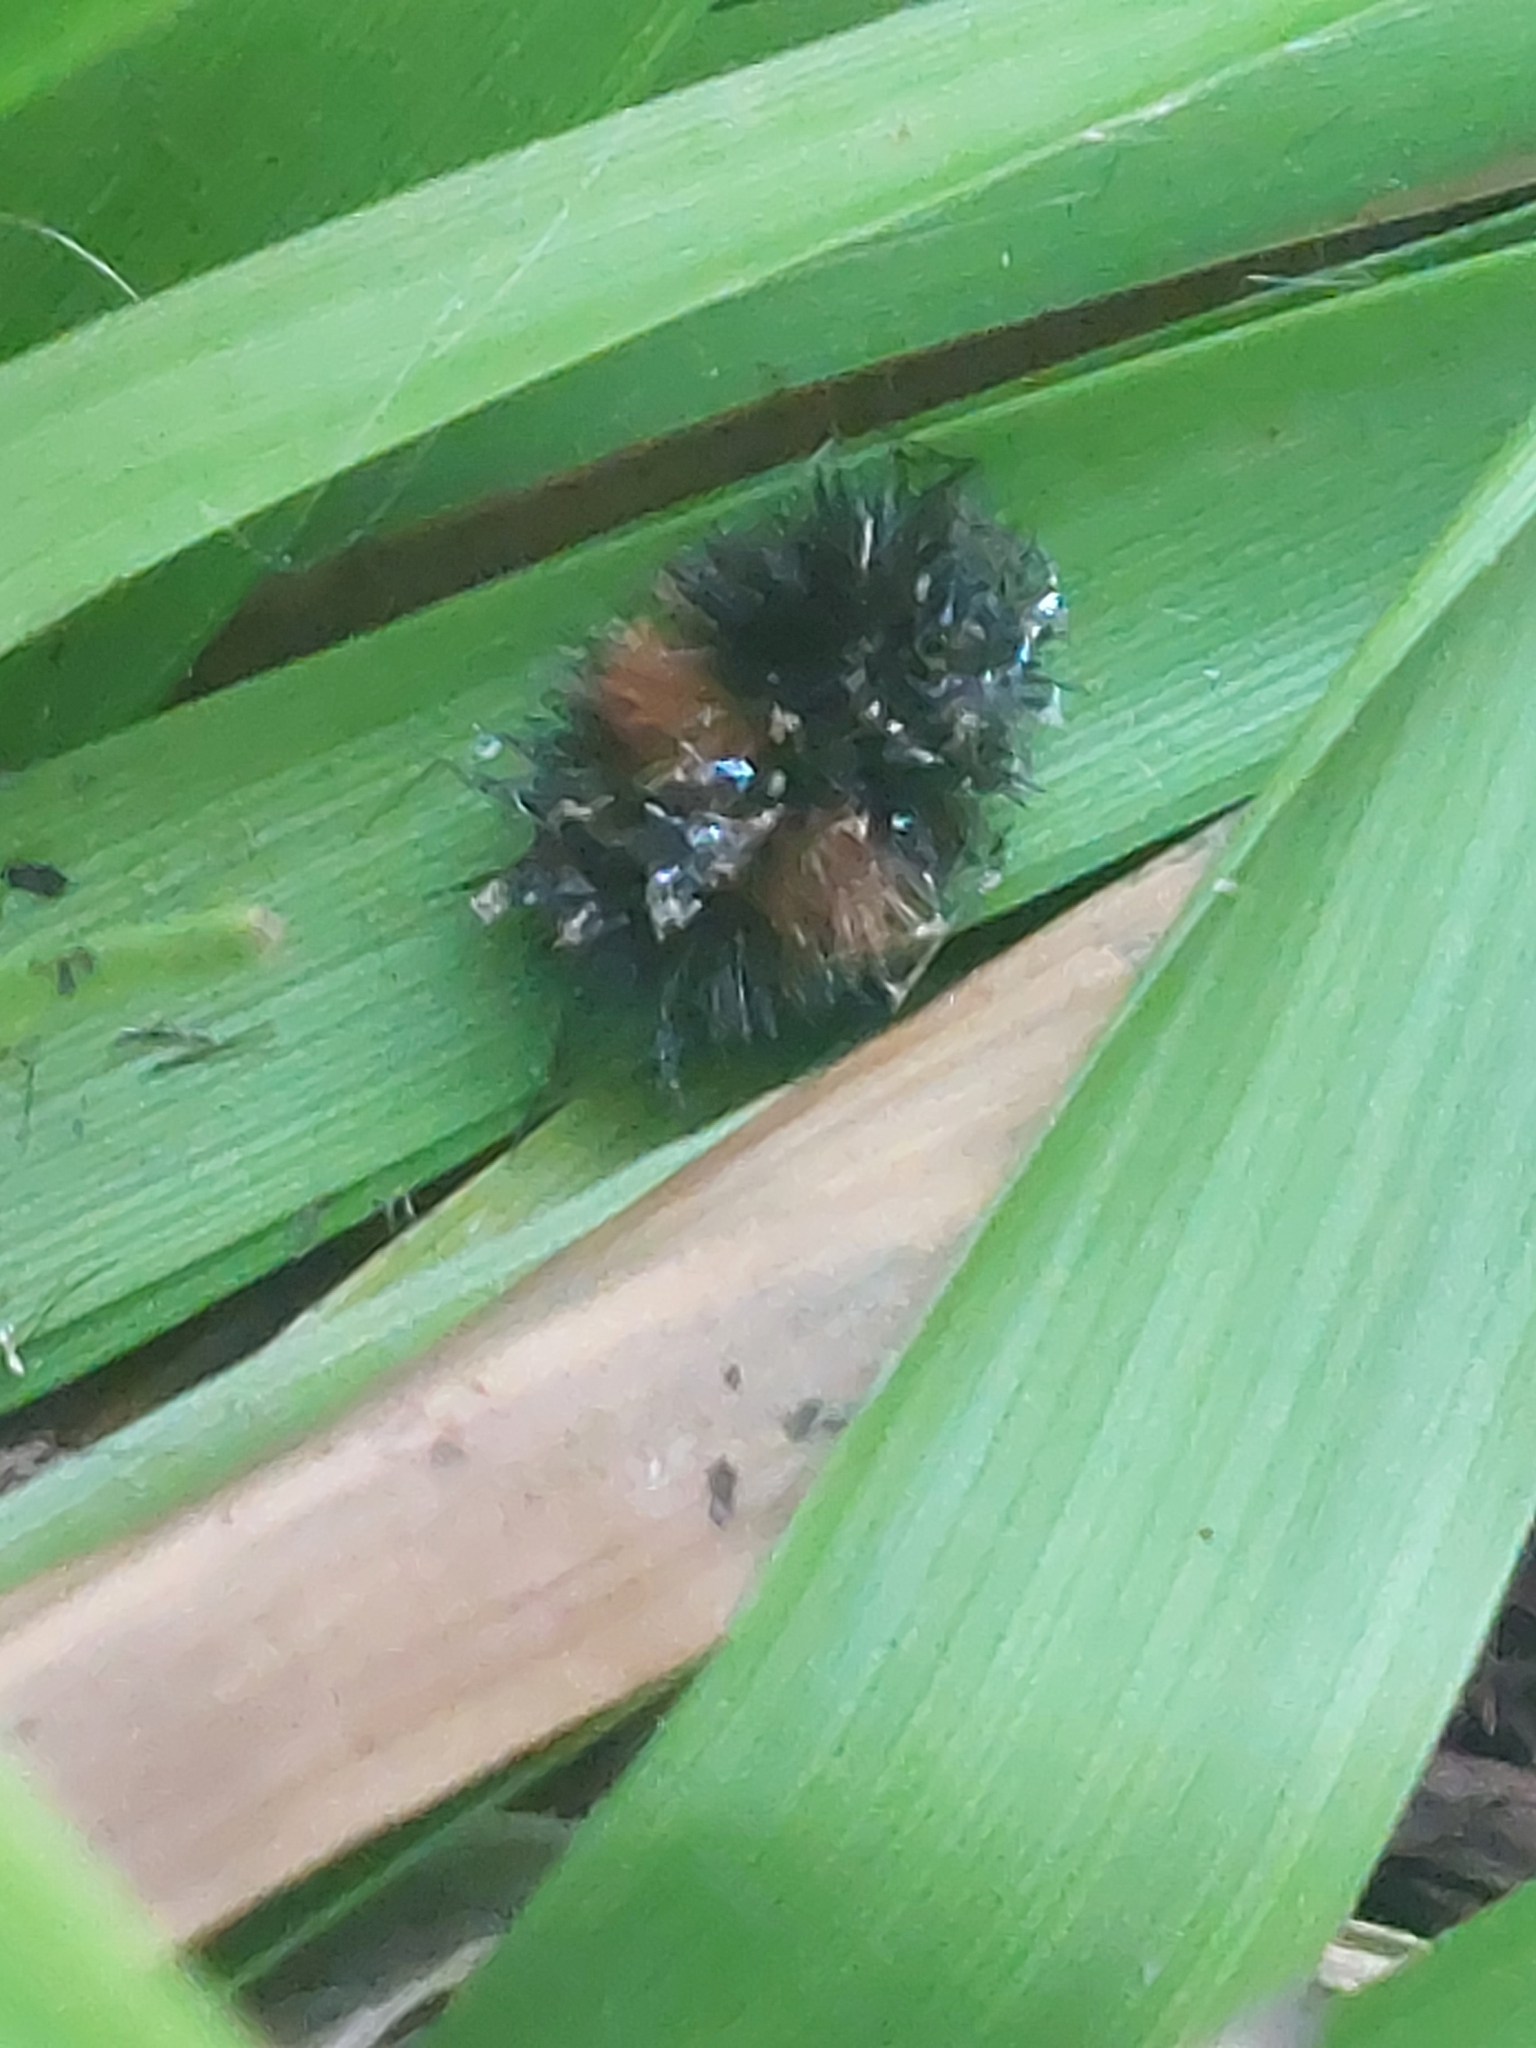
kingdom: Animalia
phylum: Arthropoda
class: Insecta
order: Lepidoptera
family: Erebidae
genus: Pyrrharctia
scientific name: Pyrrharctia isabella
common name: Isabella tiger moth
